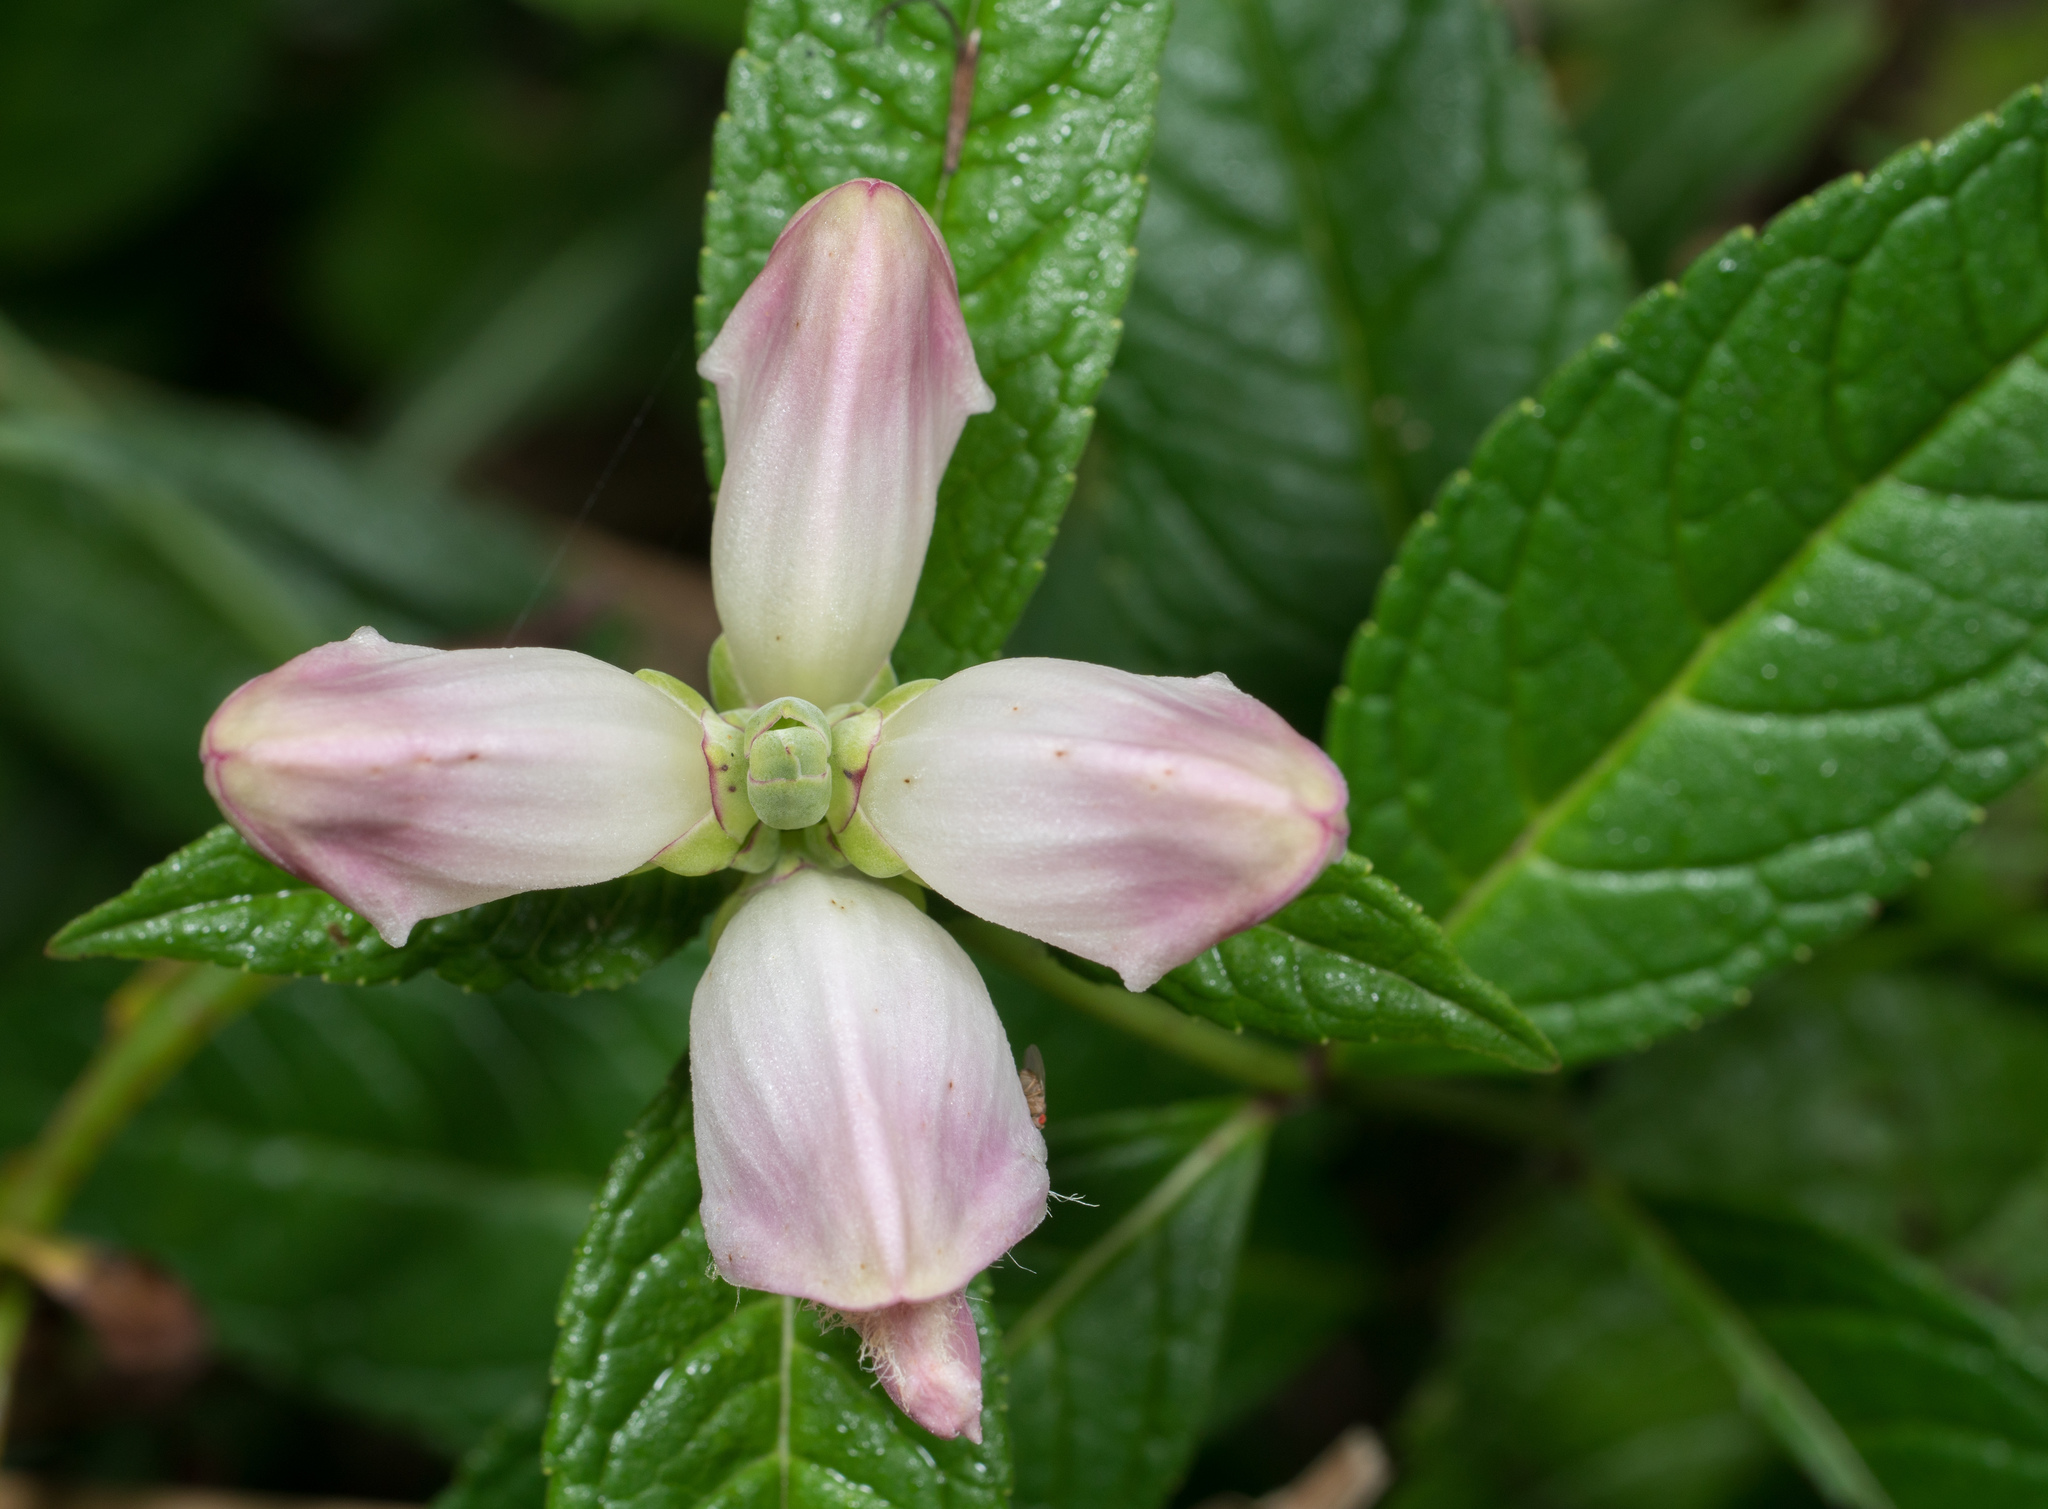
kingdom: Plantae
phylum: Tracheophyta
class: Magnoliopsida
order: Lamiales
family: Plantaginaceae
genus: Chelone
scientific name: Chelone glabra
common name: Snakehead
